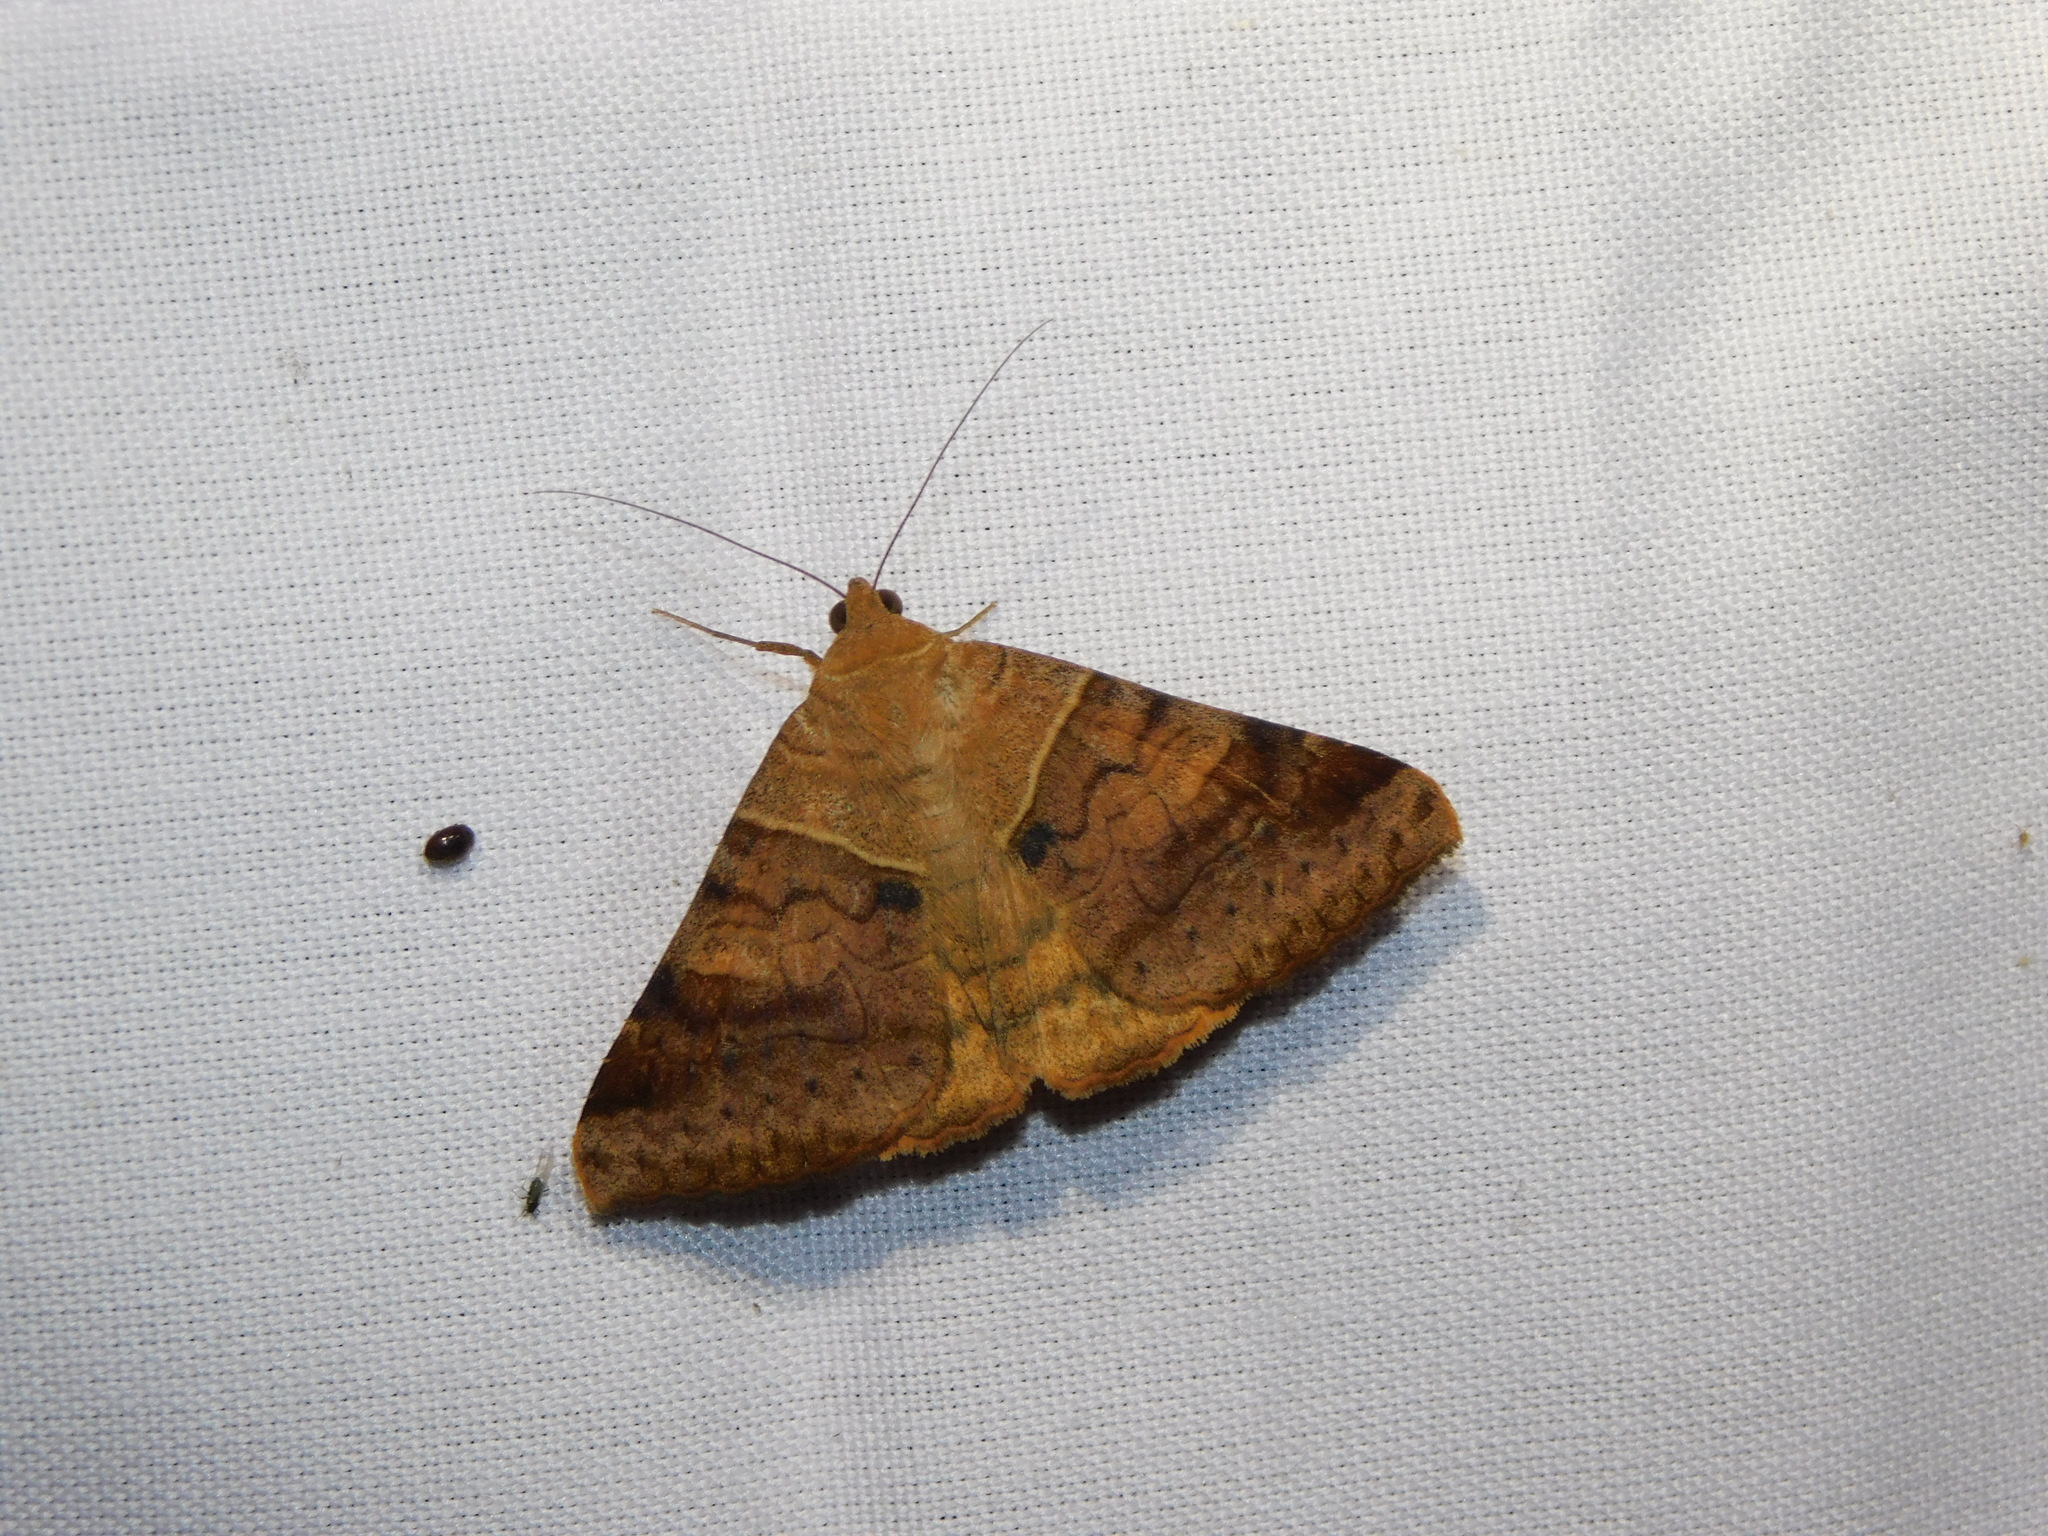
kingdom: Animalia
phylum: Arthropoda
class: Insecta
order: Lepidoptera
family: Erebidae
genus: Mocis
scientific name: Mocis undata
